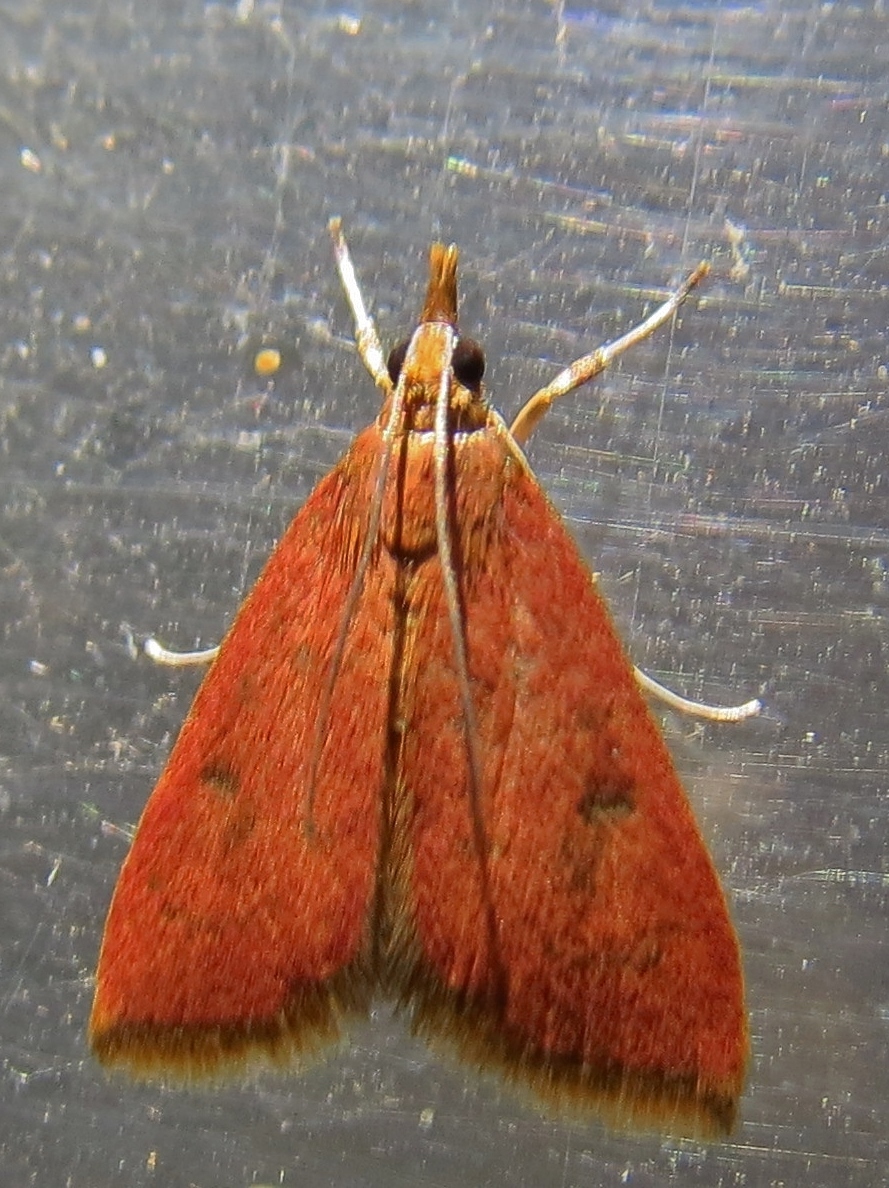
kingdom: Animalia
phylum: Arthropoda
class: Insecta
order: Lepidoptera
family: Crambidae
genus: Uresiphita
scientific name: Uresiphita reversalis
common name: Genista broom moth
